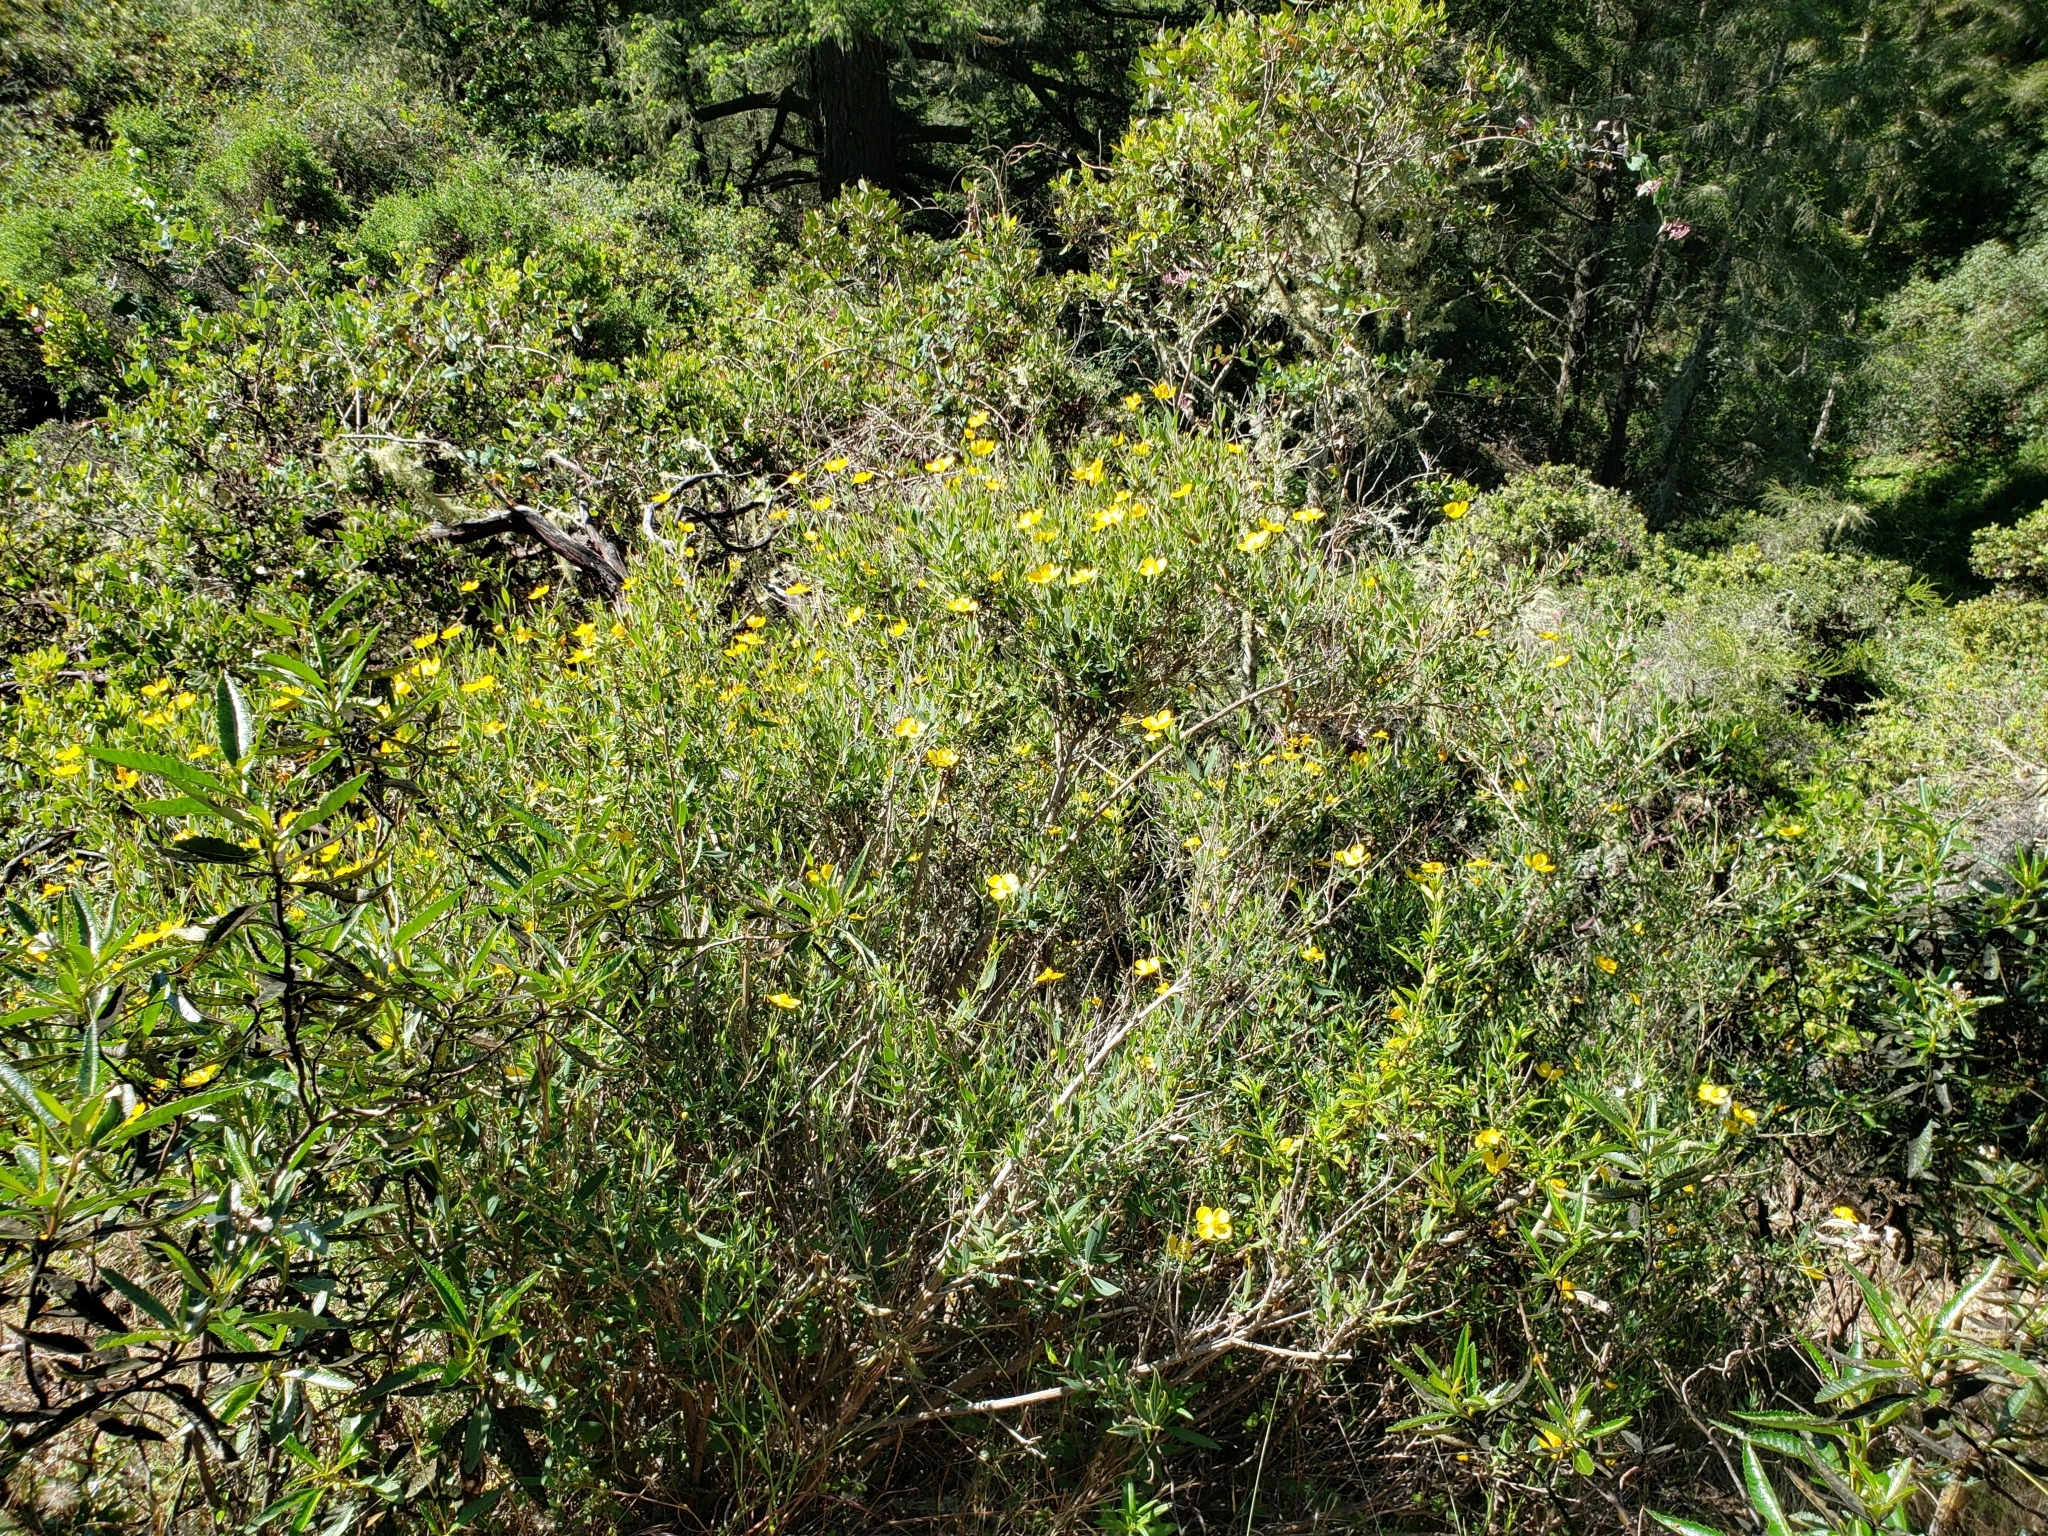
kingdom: Plantae
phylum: Tracheophyta
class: Magnoliopsida
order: Ranunculales
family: Papaveraceae
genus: Dendromecon
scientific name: Dendromecon rigida
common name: Tree poppy
